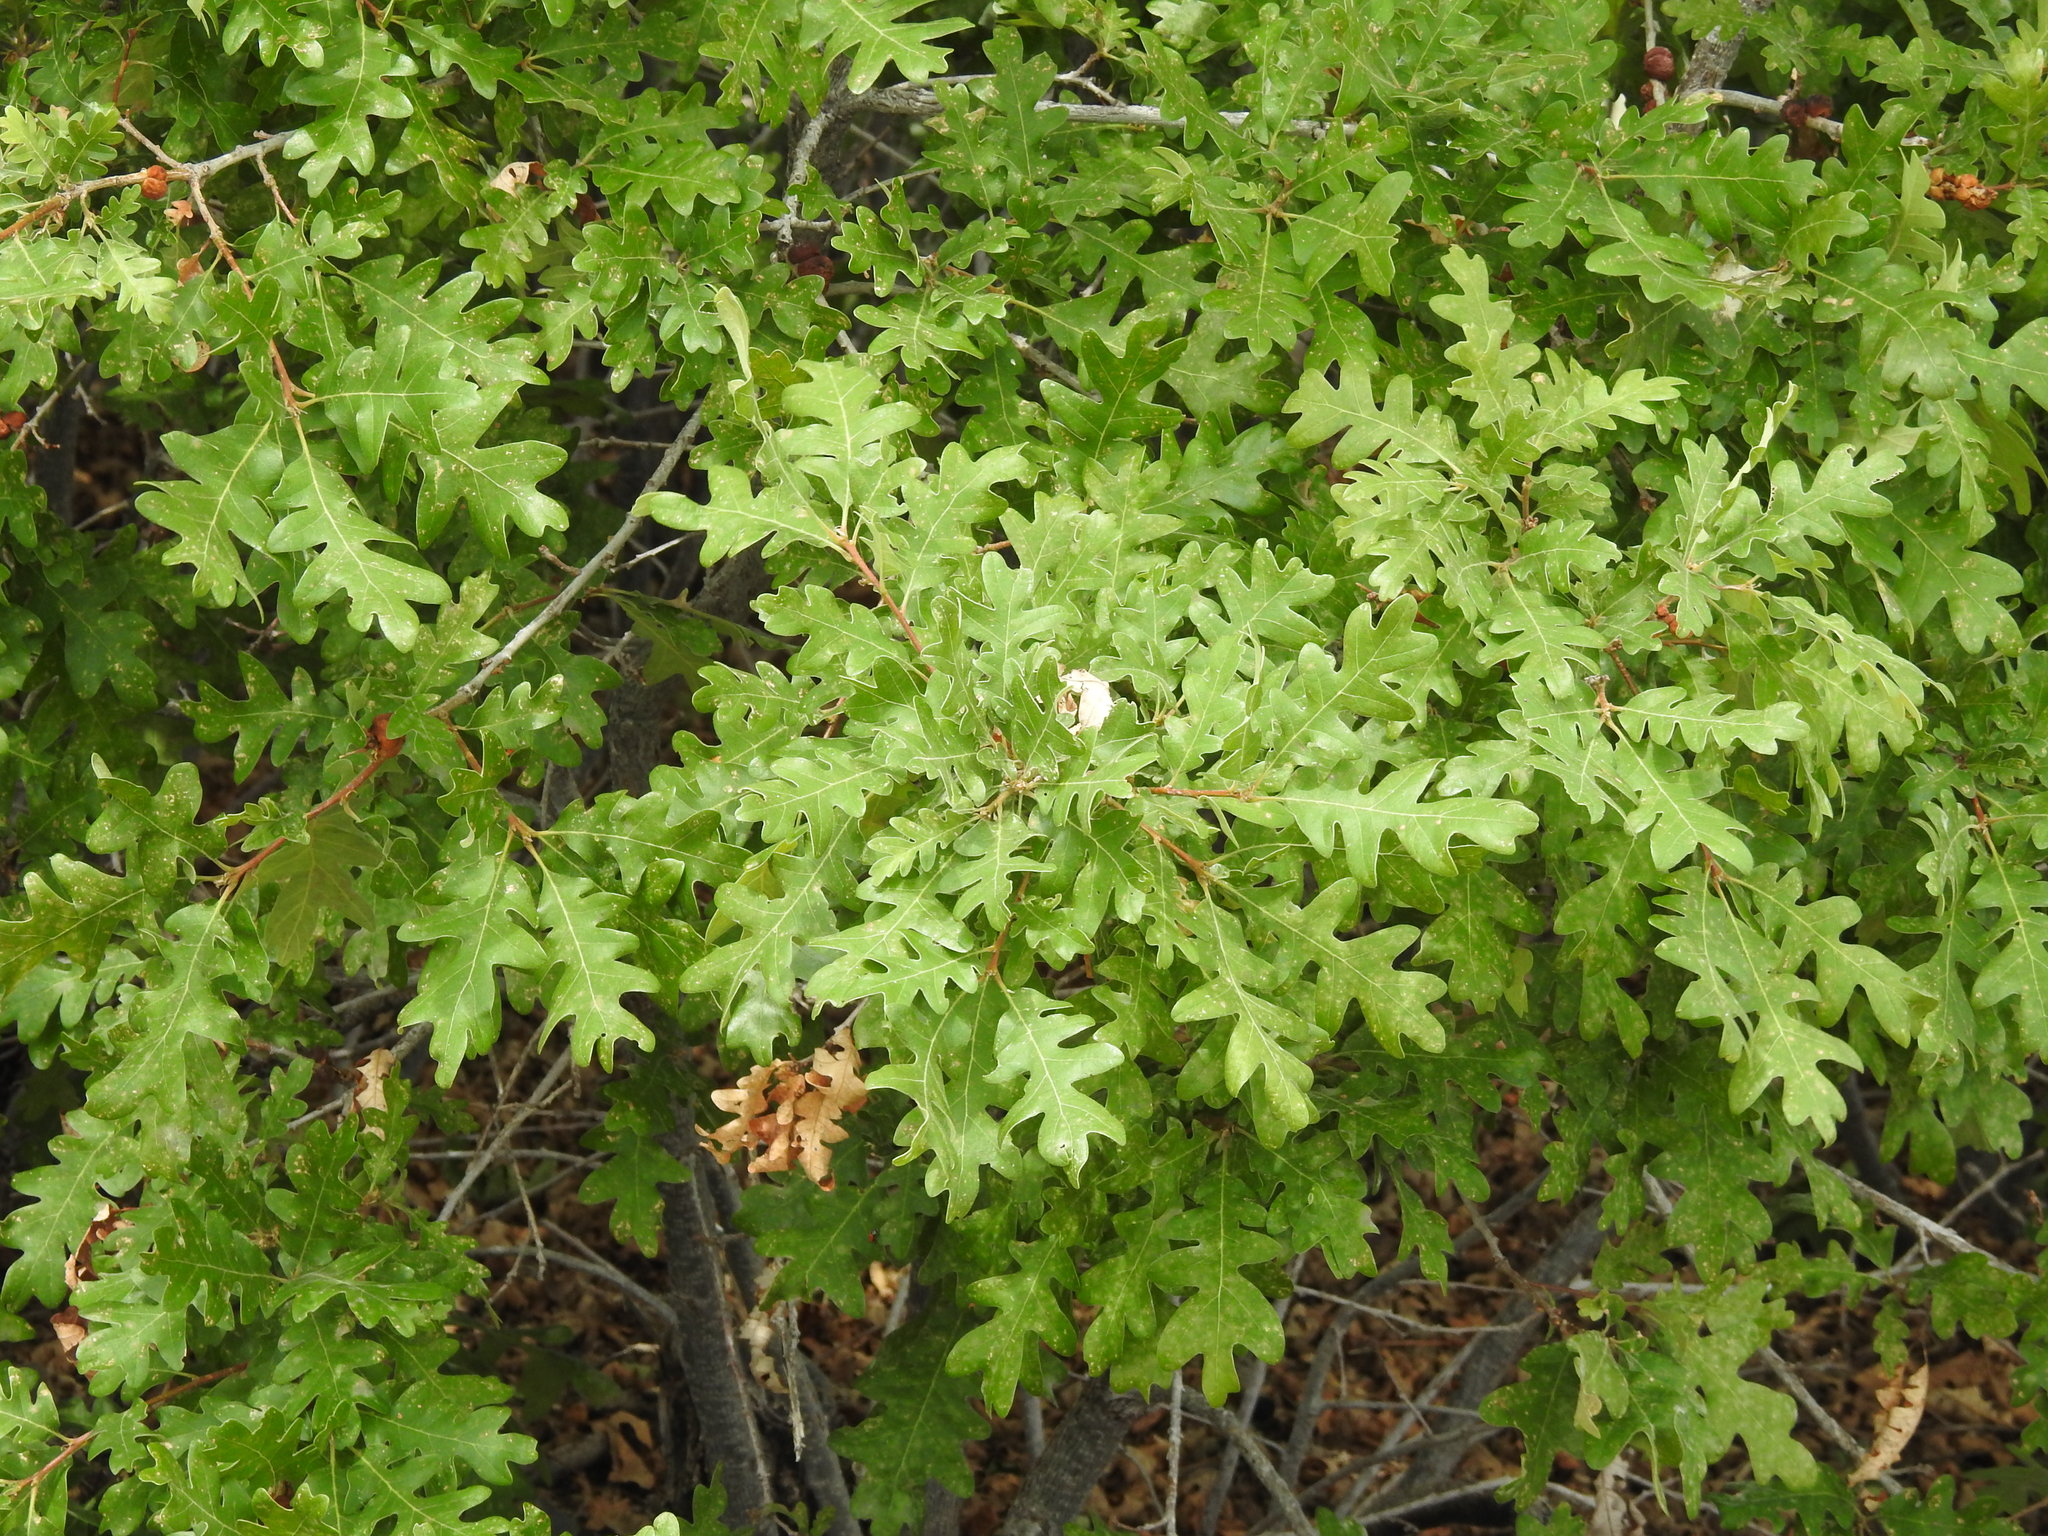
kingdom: Plantae
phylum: Tracheophyta
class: Magnoliopsida
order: Fagales
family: Fagaceae
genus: Quercus
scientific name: Quercus gambelii
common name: Gambel oak
